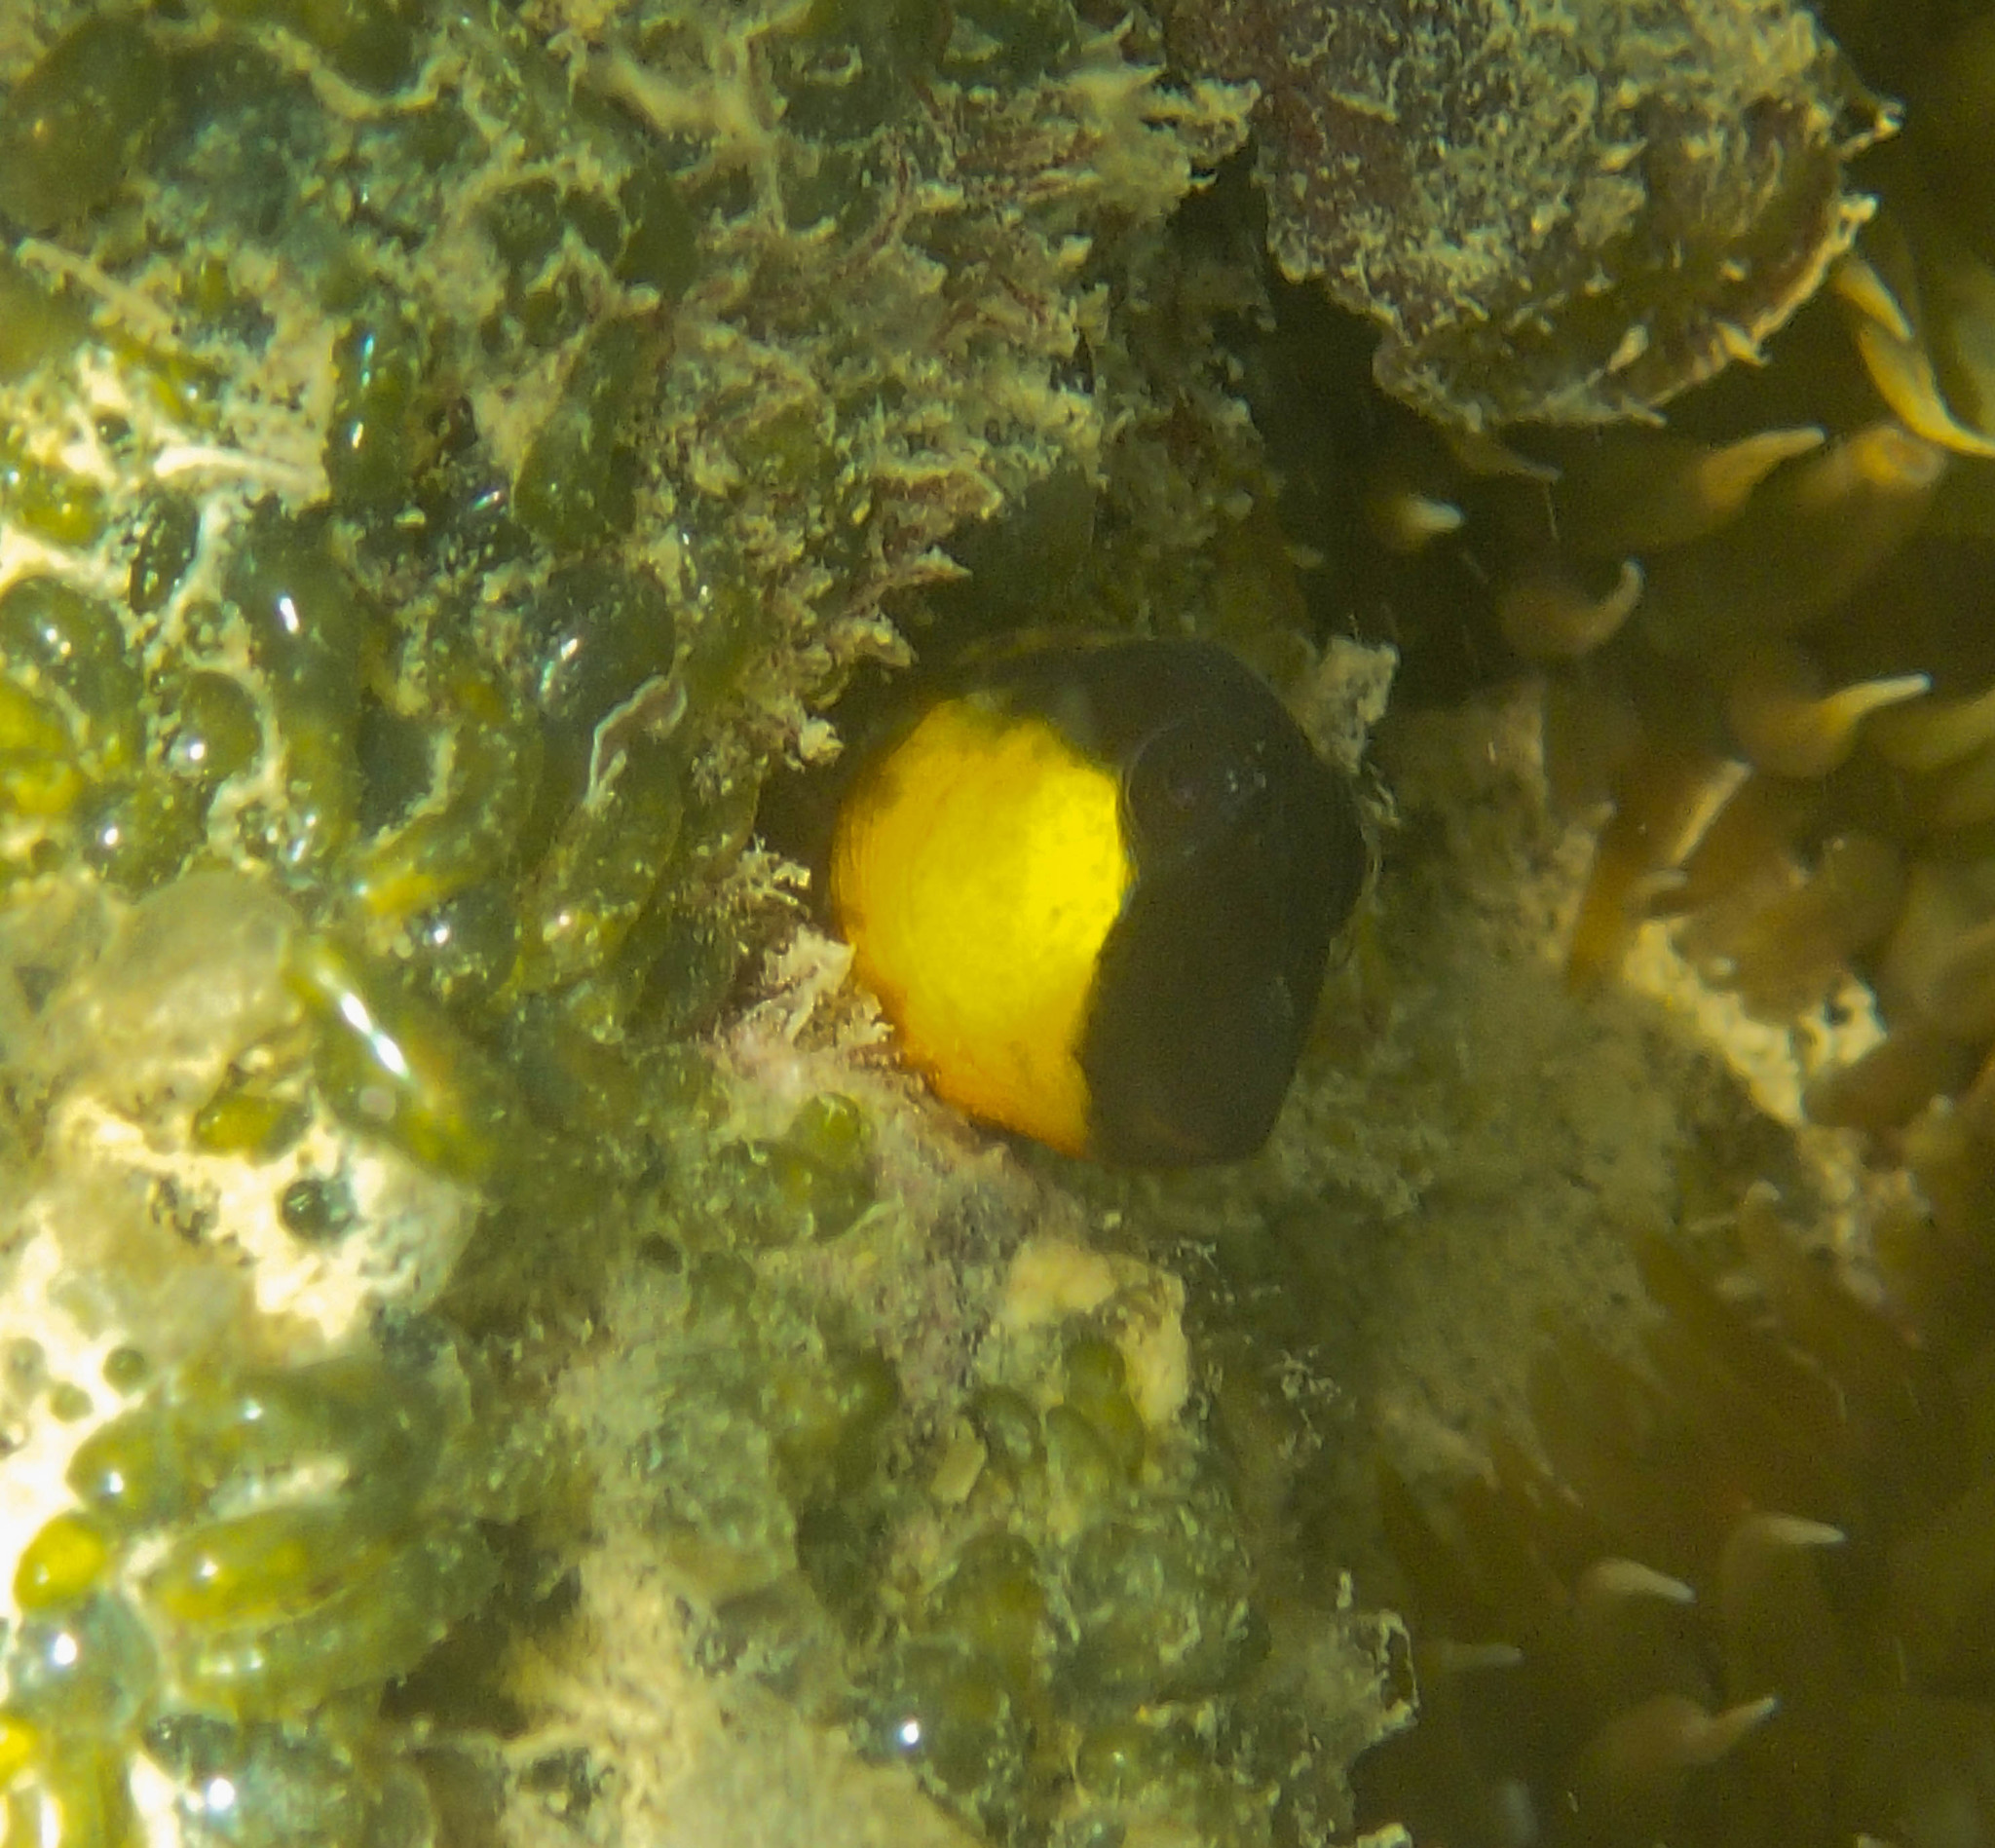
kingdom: Animalia
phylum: Chordata
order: Perciformes
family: Blenniidae
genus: Microlipophrys
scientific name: Microlipophrys canevae
